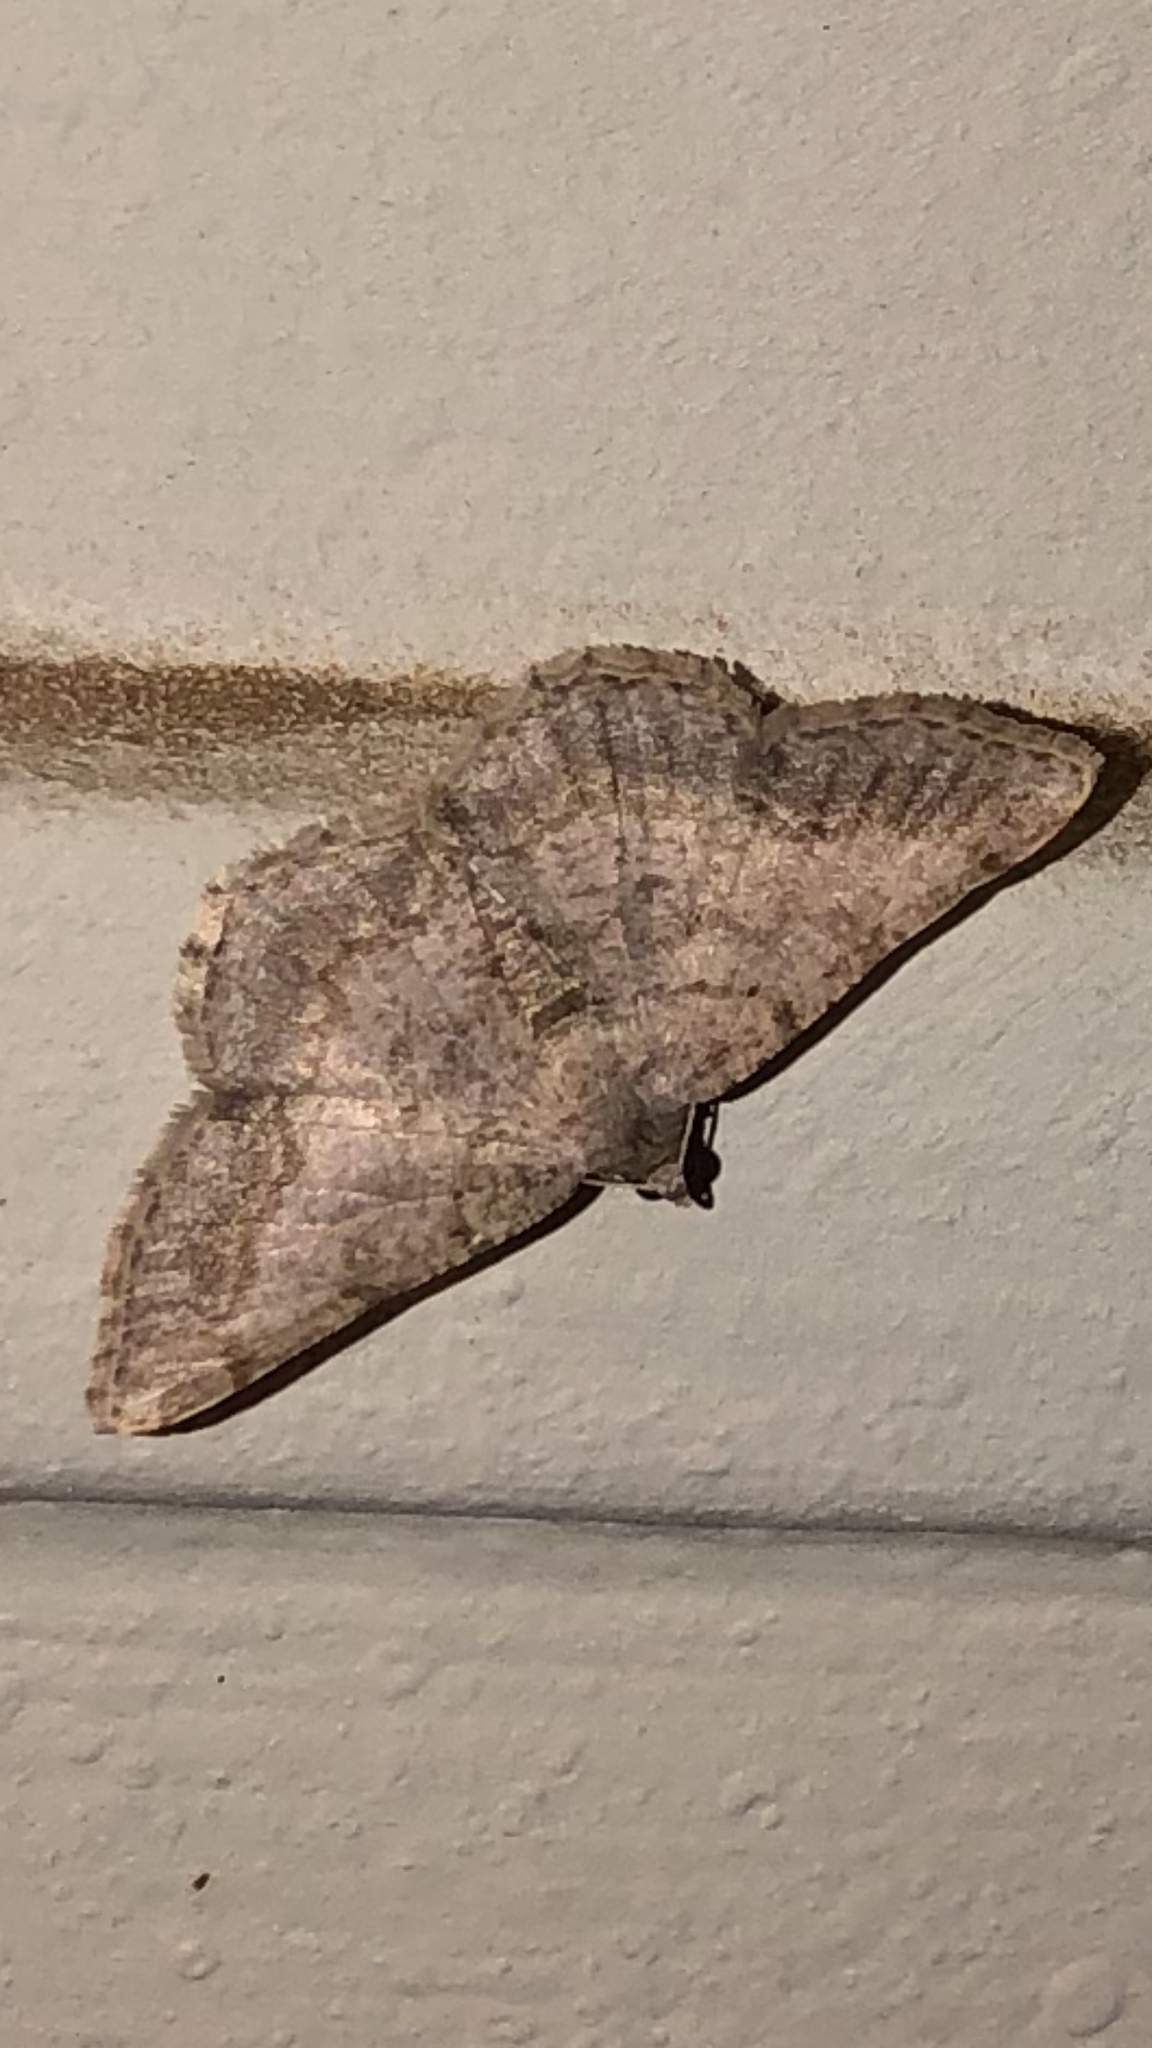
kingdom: Animalia
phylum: Arthropoda
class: Insecta
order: Lepidoptera
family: Geometridae
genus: Digrammia
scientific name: Digrammia ocellinata
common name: Faint-spotted angle
